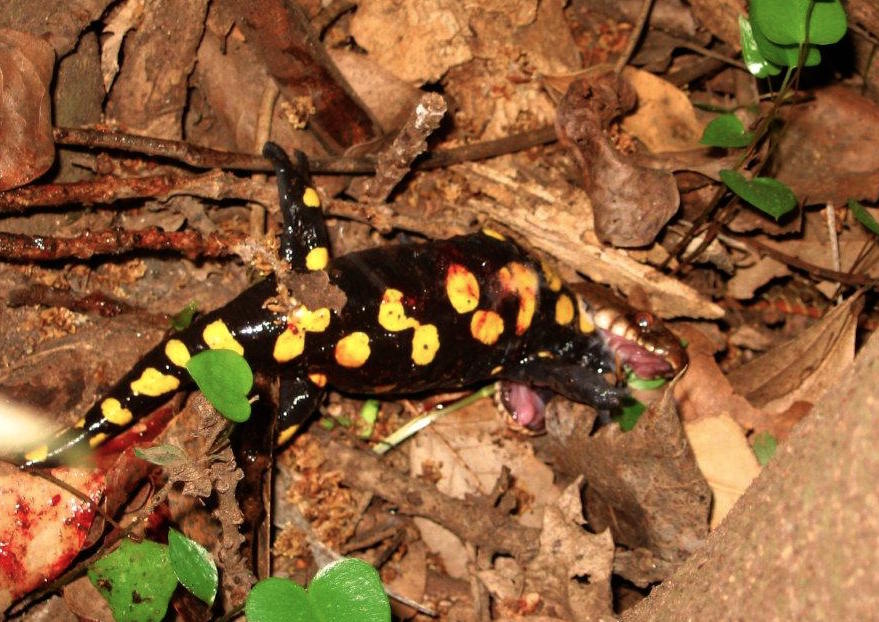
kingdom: Animalia
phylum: Chordata
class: Squamata
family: Colubridae
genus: Natrix
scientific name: Natrix tessellata
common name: Dice snake
